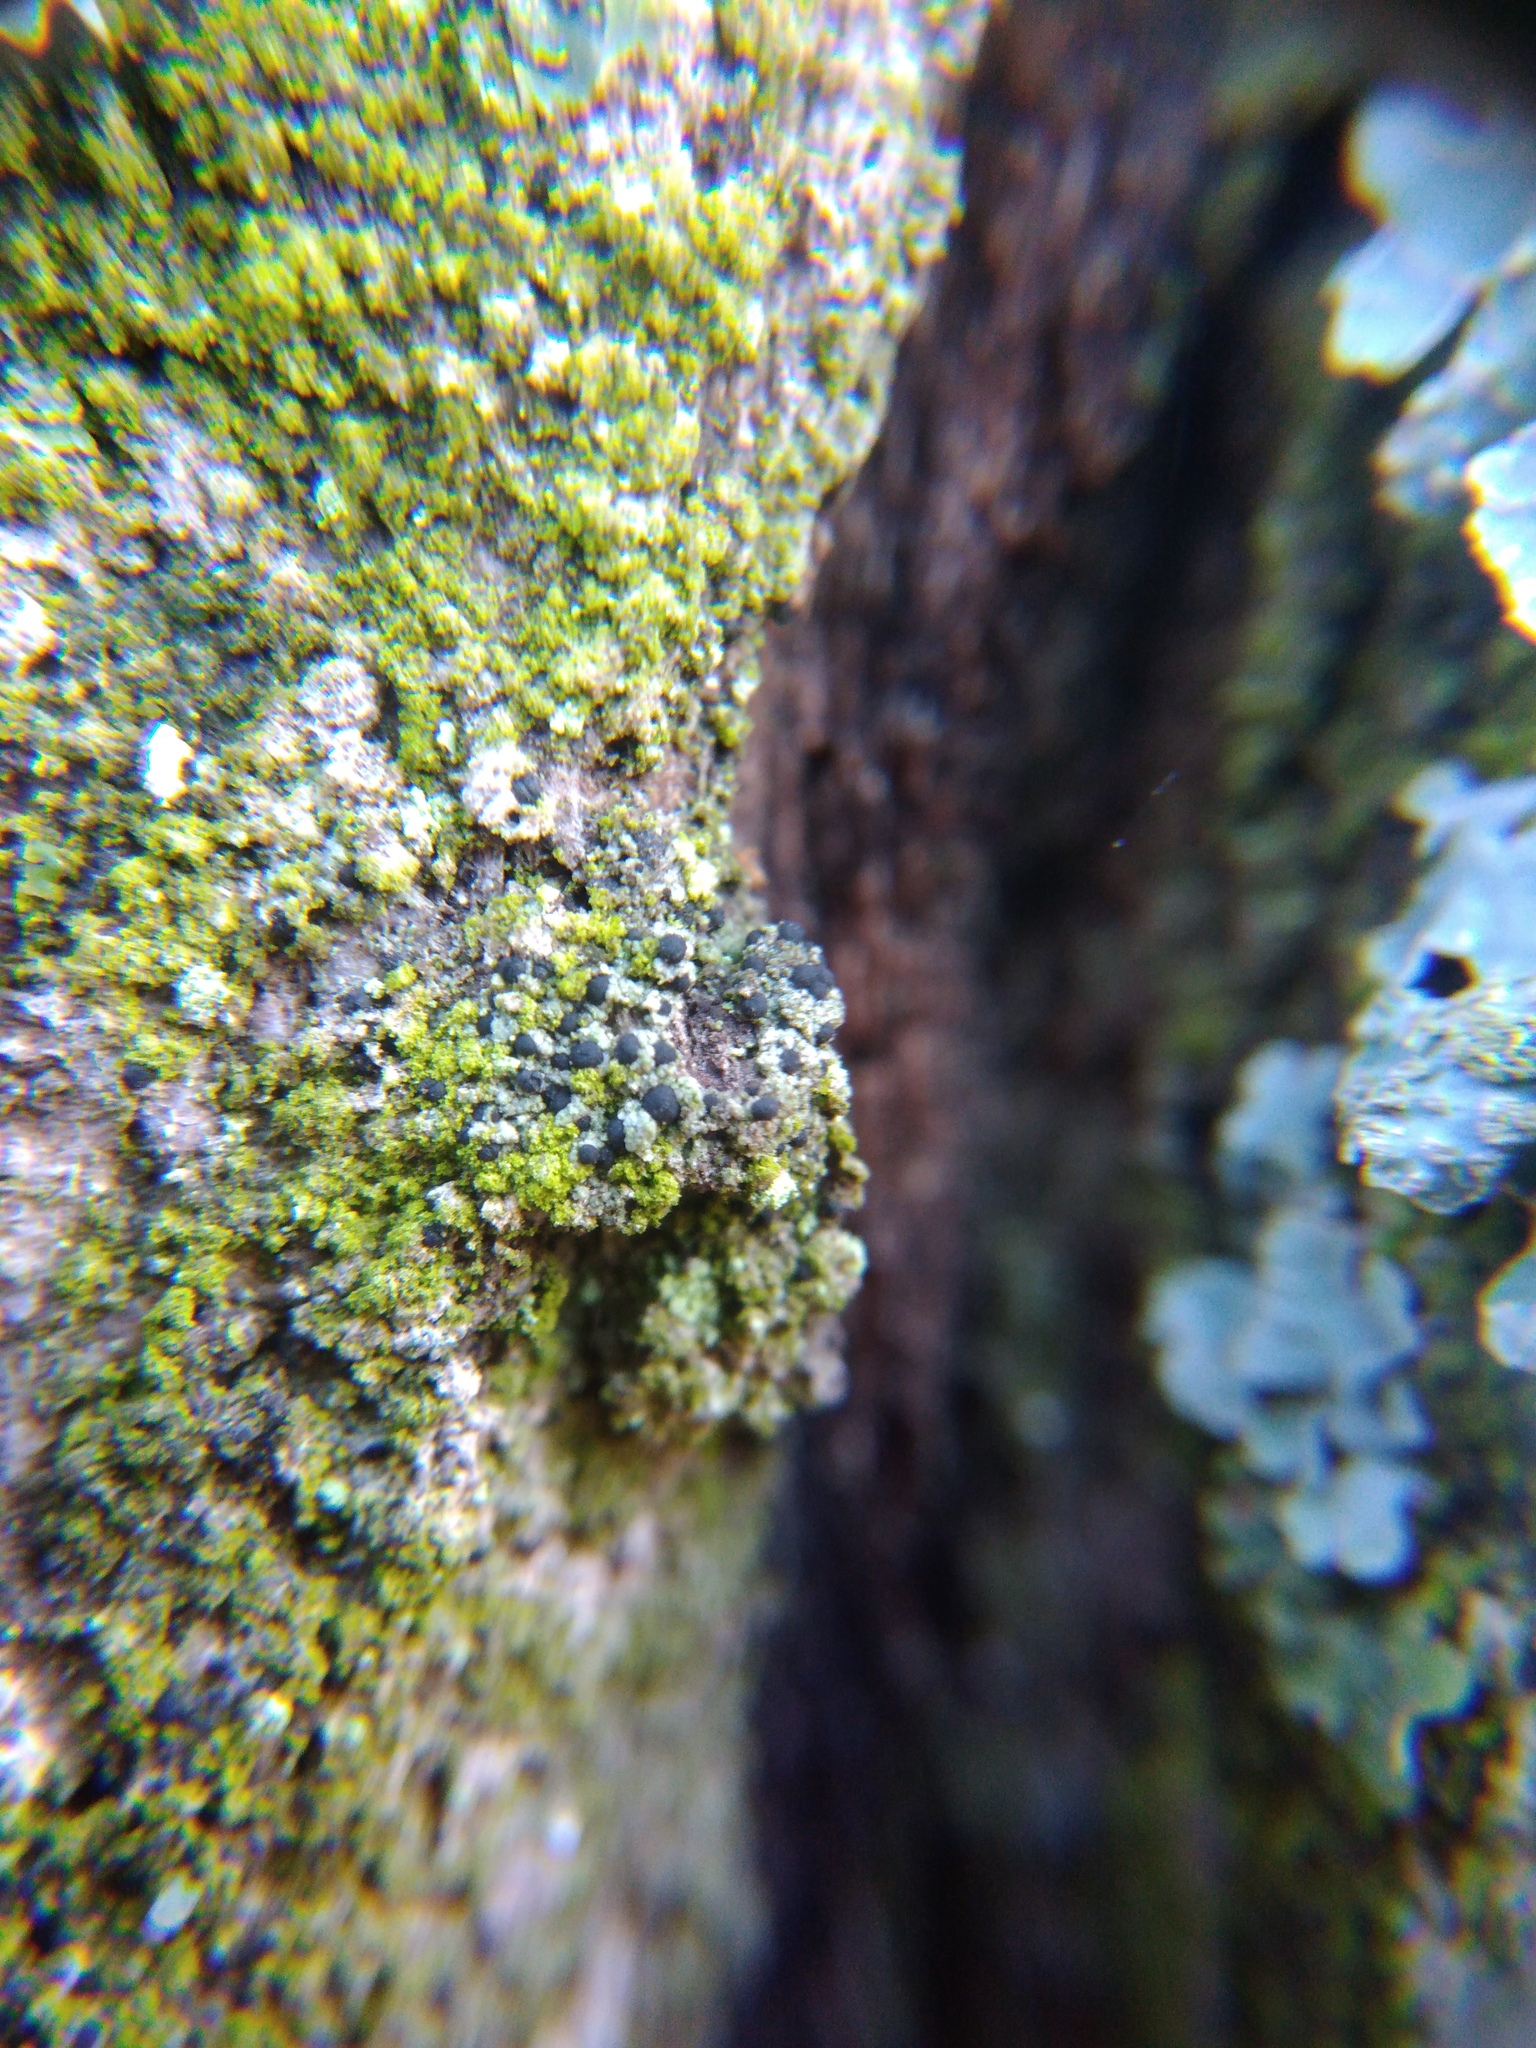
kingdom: Fungi
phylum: Ascomycota
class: Lecanoromycetes
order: Caliciales
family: Caliciaceae
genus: Amandinea
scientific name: Amandinea punctata
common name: Tiny button lichen
